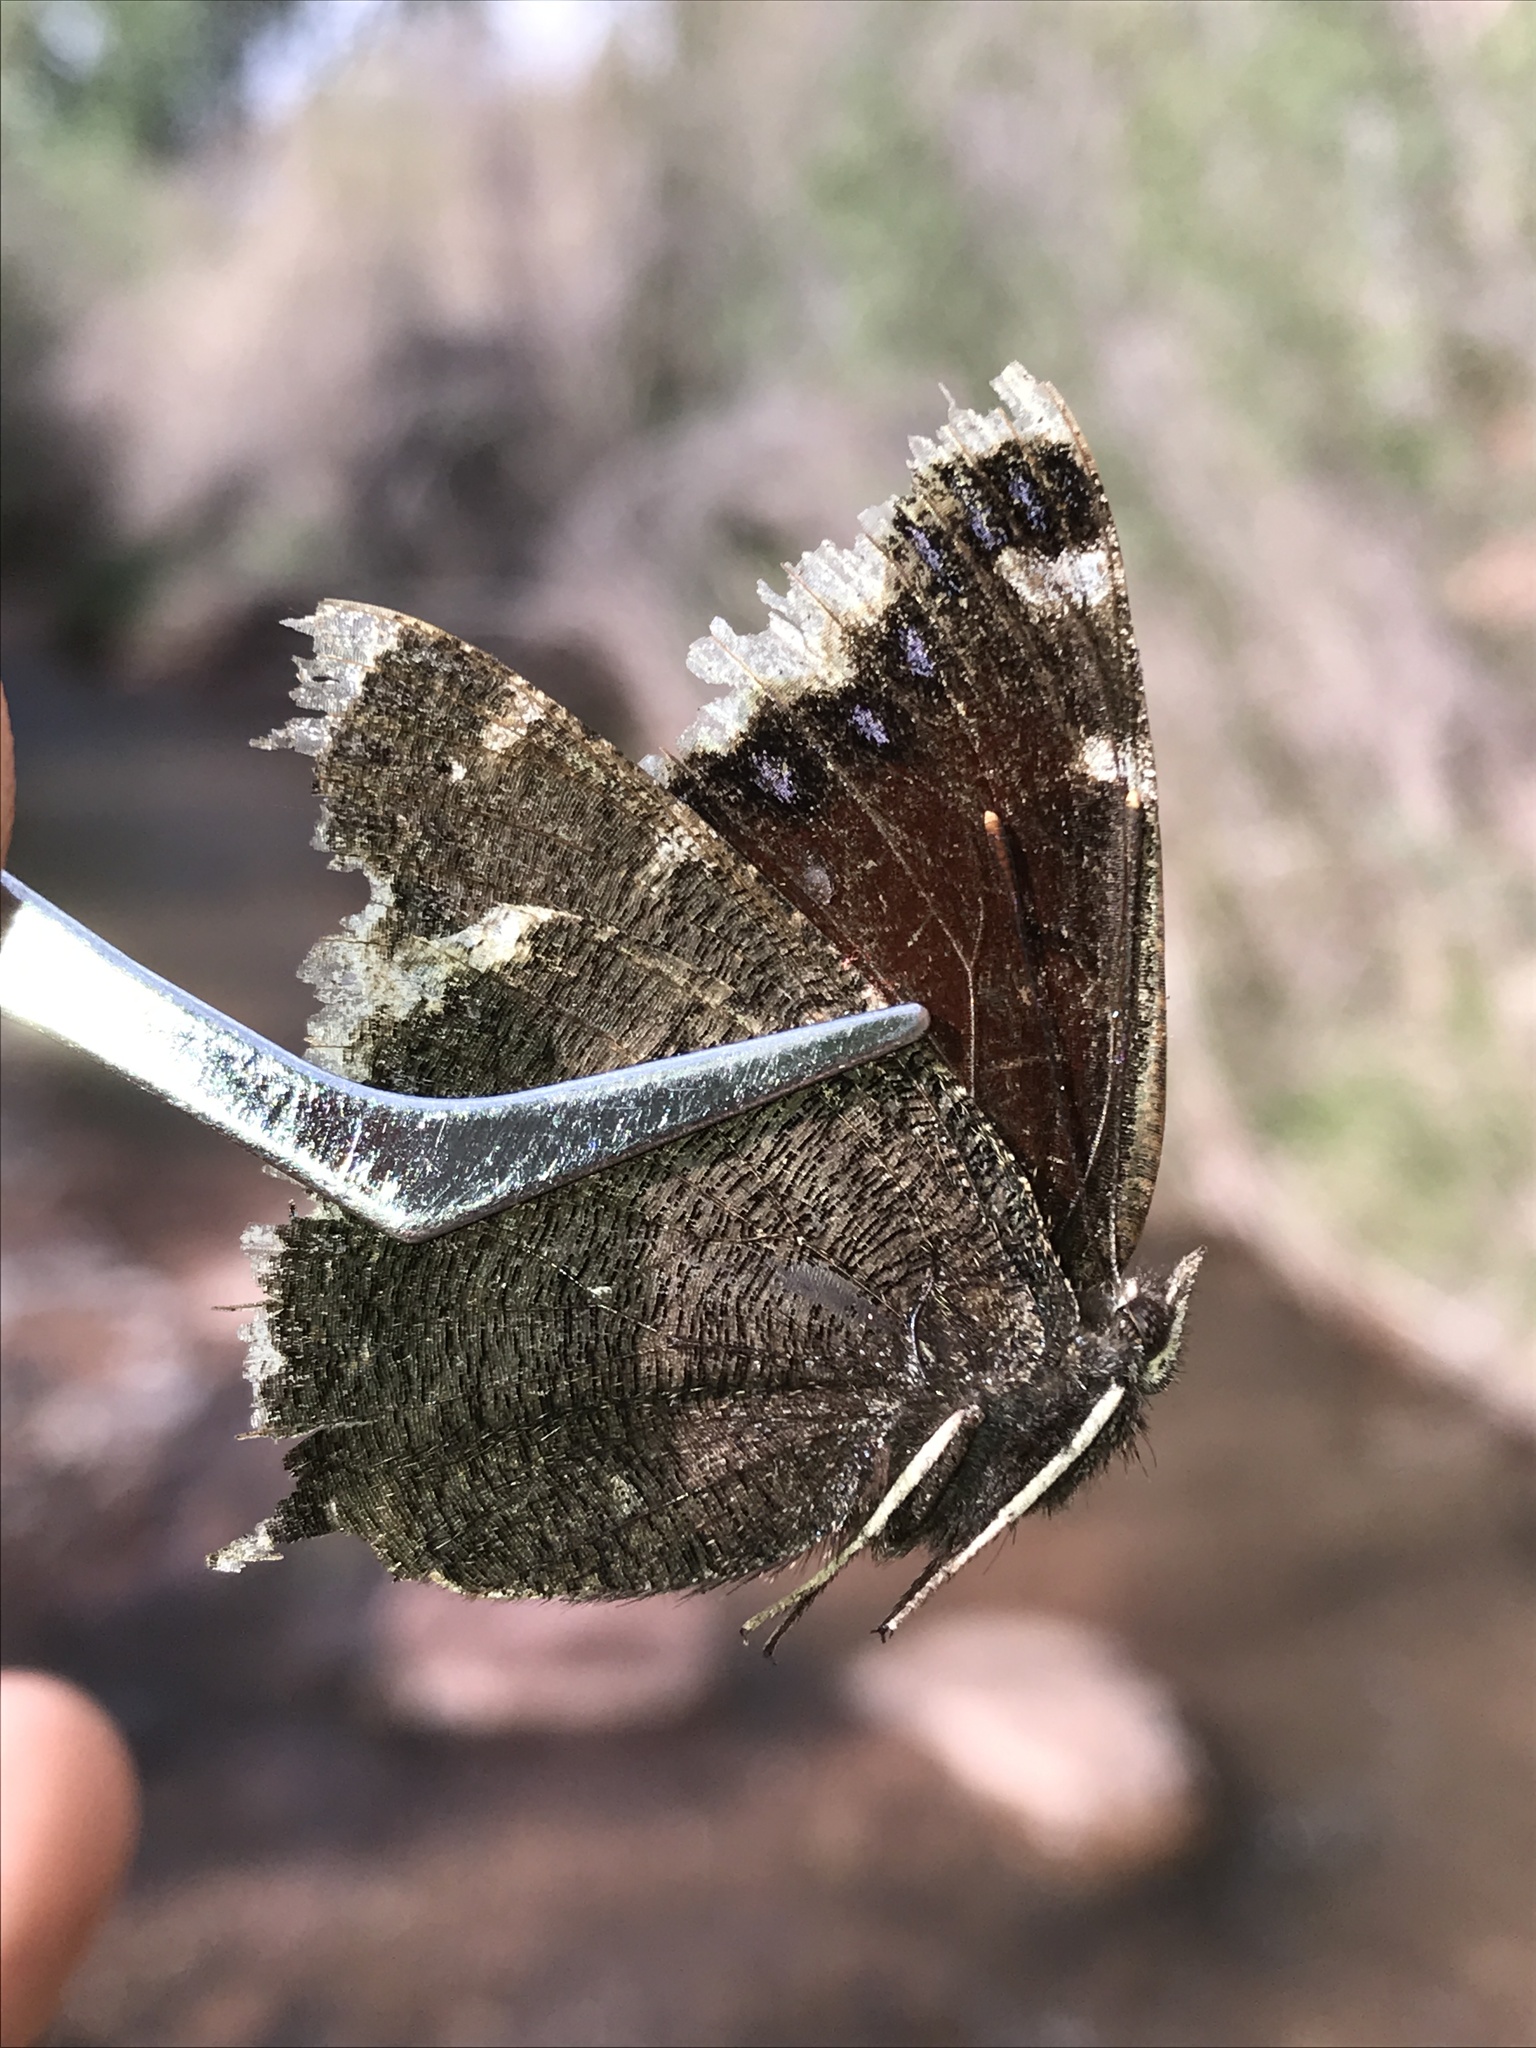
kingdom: Animalia
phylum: Arthropoda
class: Insecta
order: Lepidoptera
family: Nymphalidae
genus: Nymphalis
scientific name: Nymphalis antiopa
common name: Camberwell beauty
